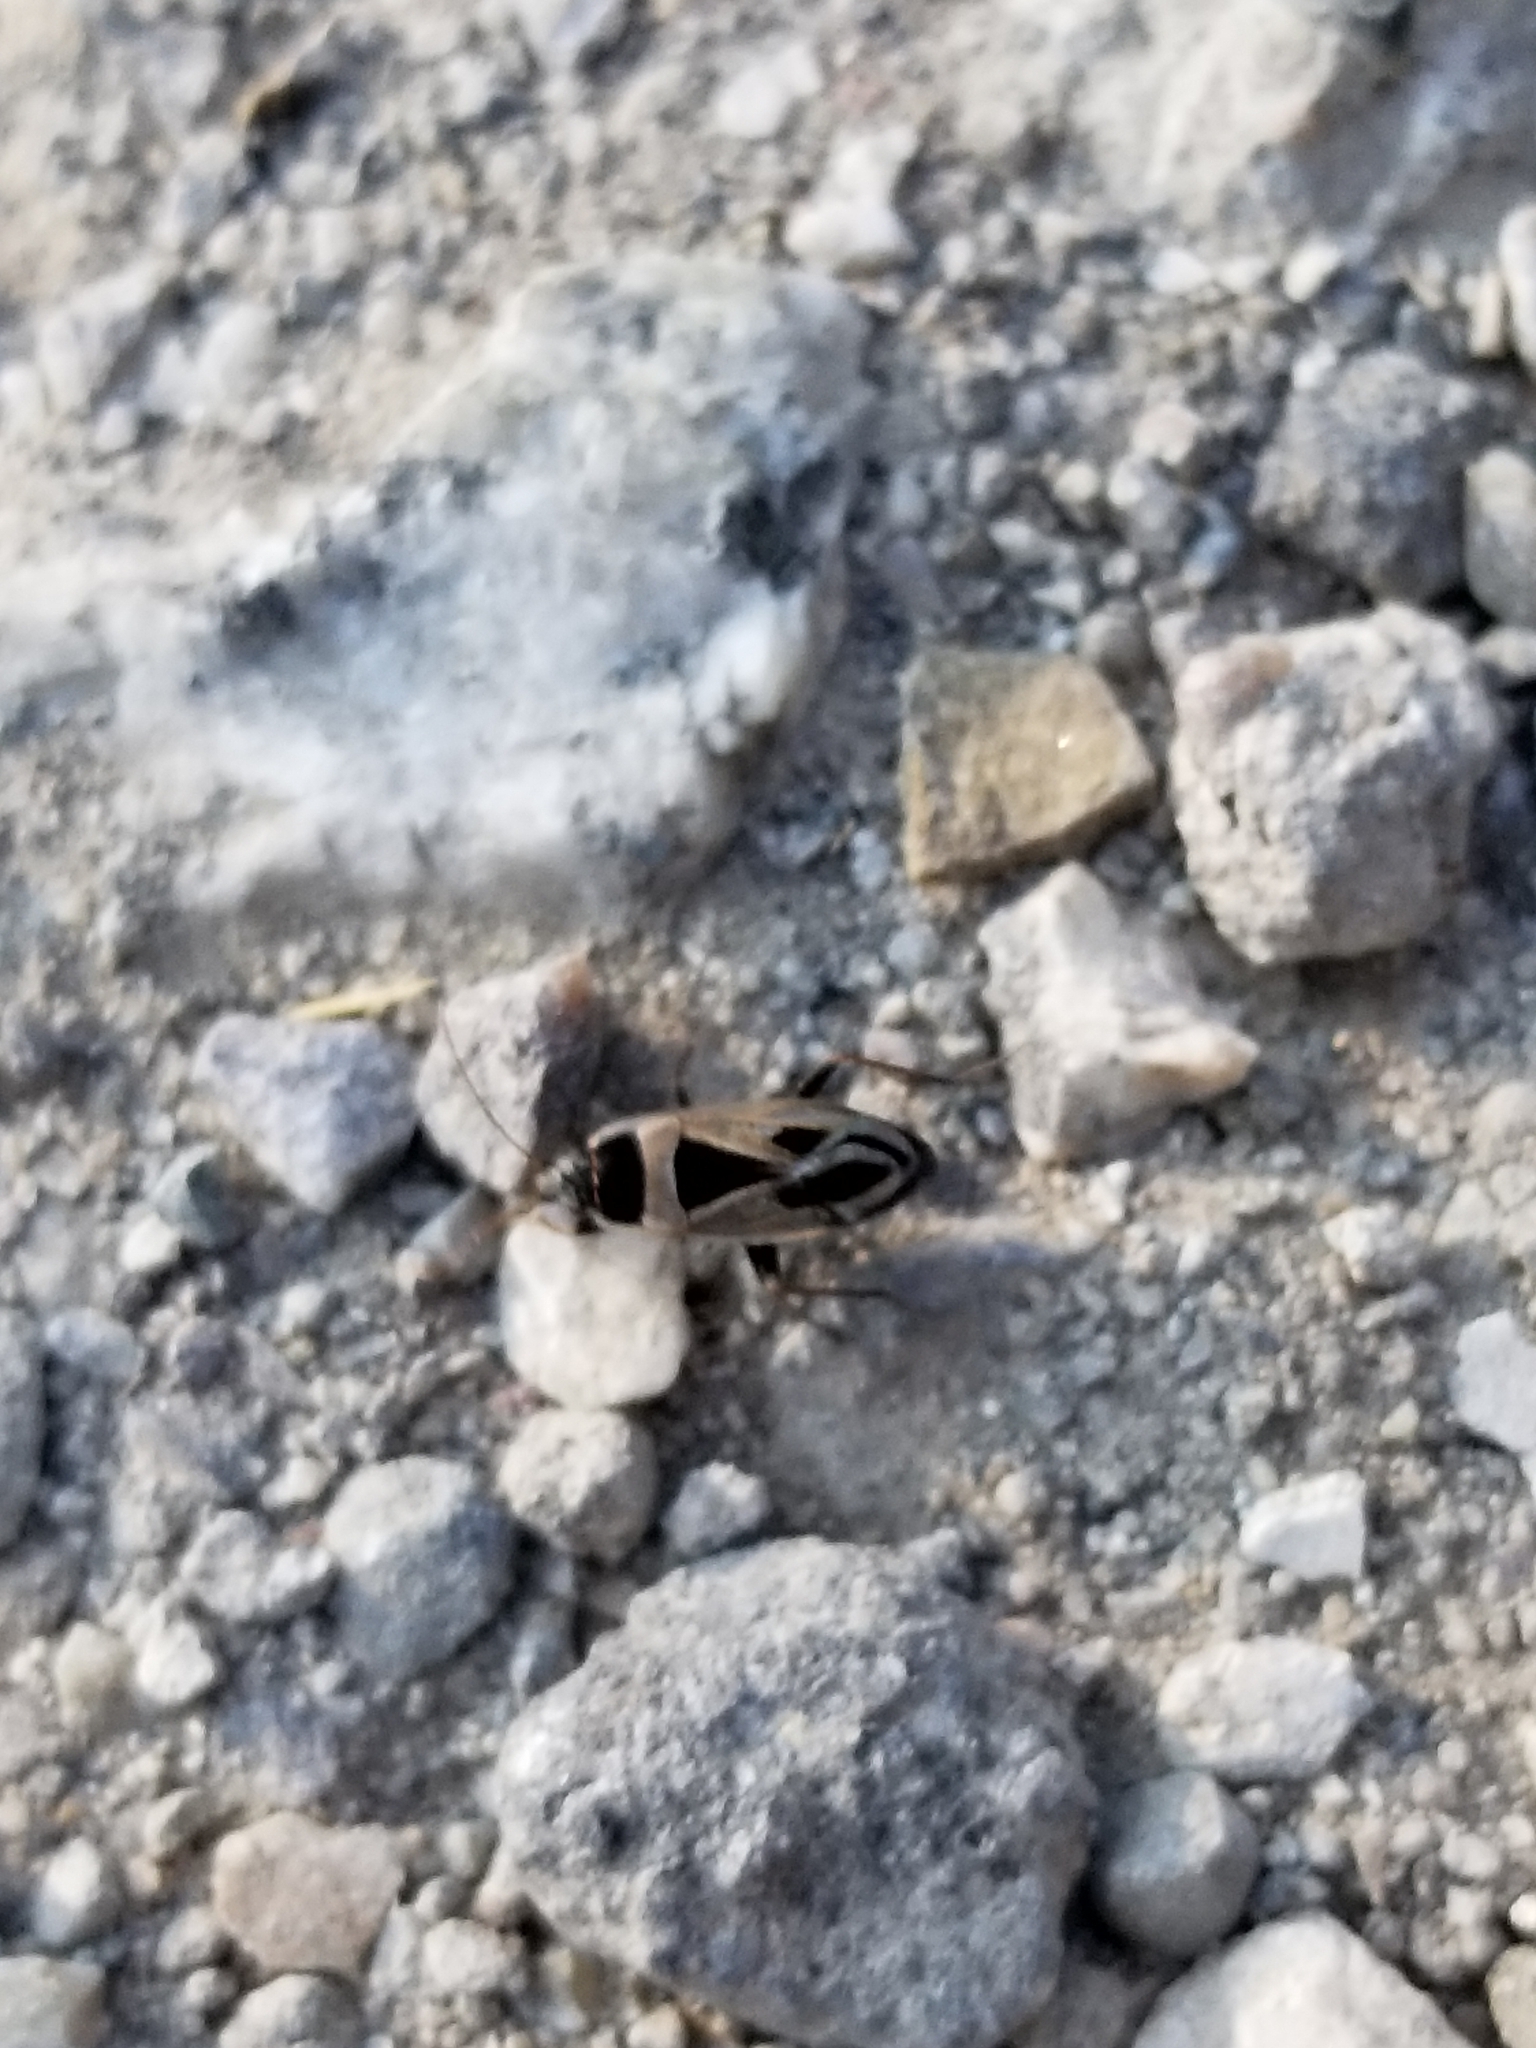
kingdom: Animalia
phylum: Arthropoda
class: Insecta
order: Hemiptera
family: Rhyparochromidae
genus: Xanthochilus
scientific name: Xanthochilus saturnius
